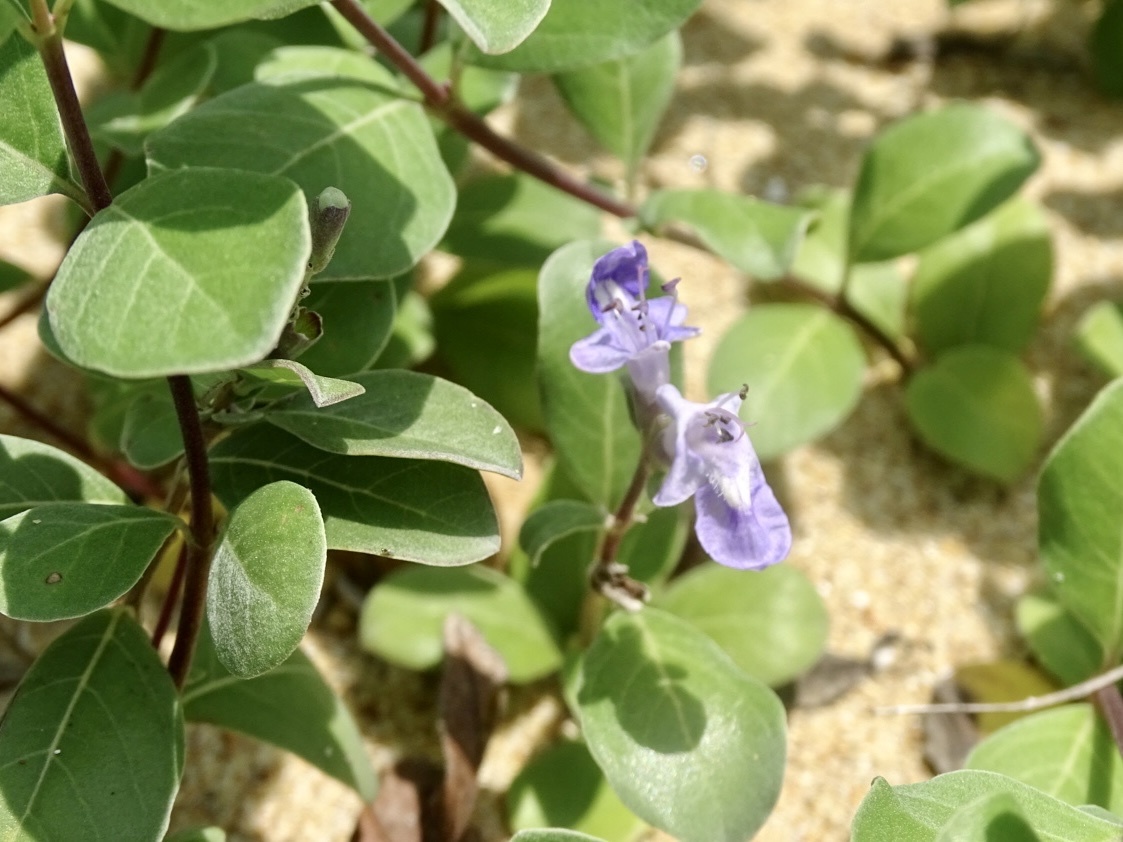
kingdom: Plantae
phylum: Tracheophyta
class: Magnoliopsida
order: Lamiales
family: Lamiaceae
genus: Vitex
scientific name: Vitex rotundifolia
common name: Beach vitex
